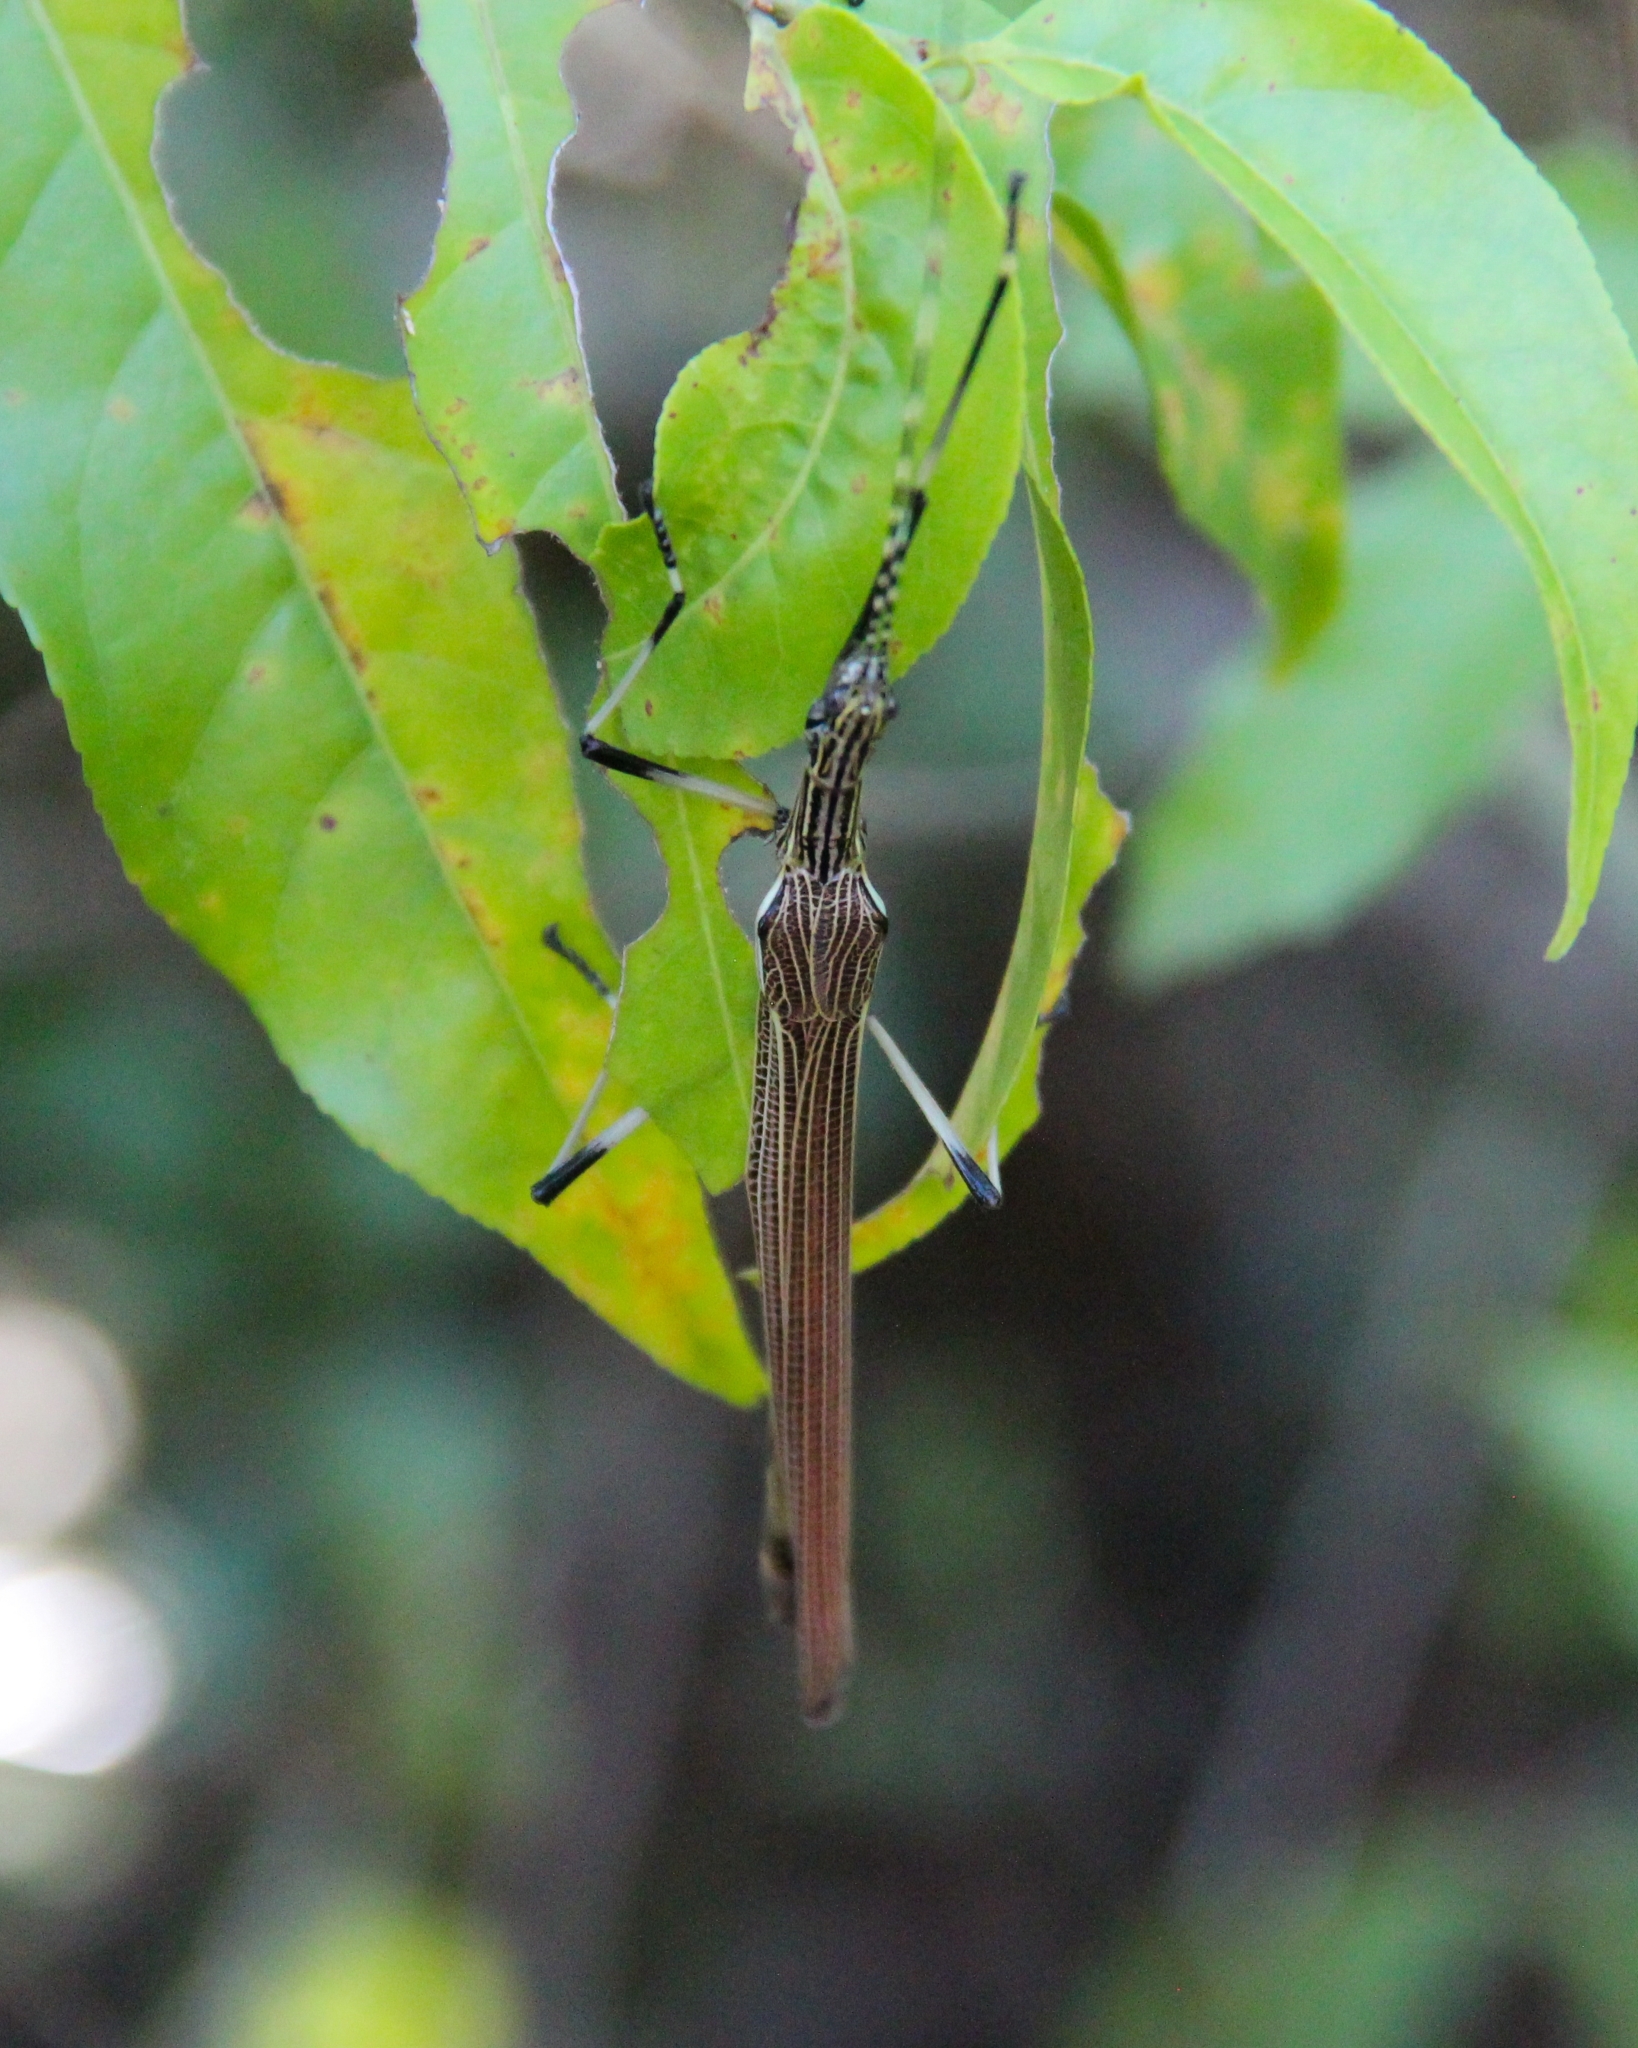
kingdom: Animalia
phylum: Arthropoda
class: Insecta
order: Phasmida
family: Pseudophasmatidae
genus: Tithonophasma
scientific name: Tithonophasma cancellatum
